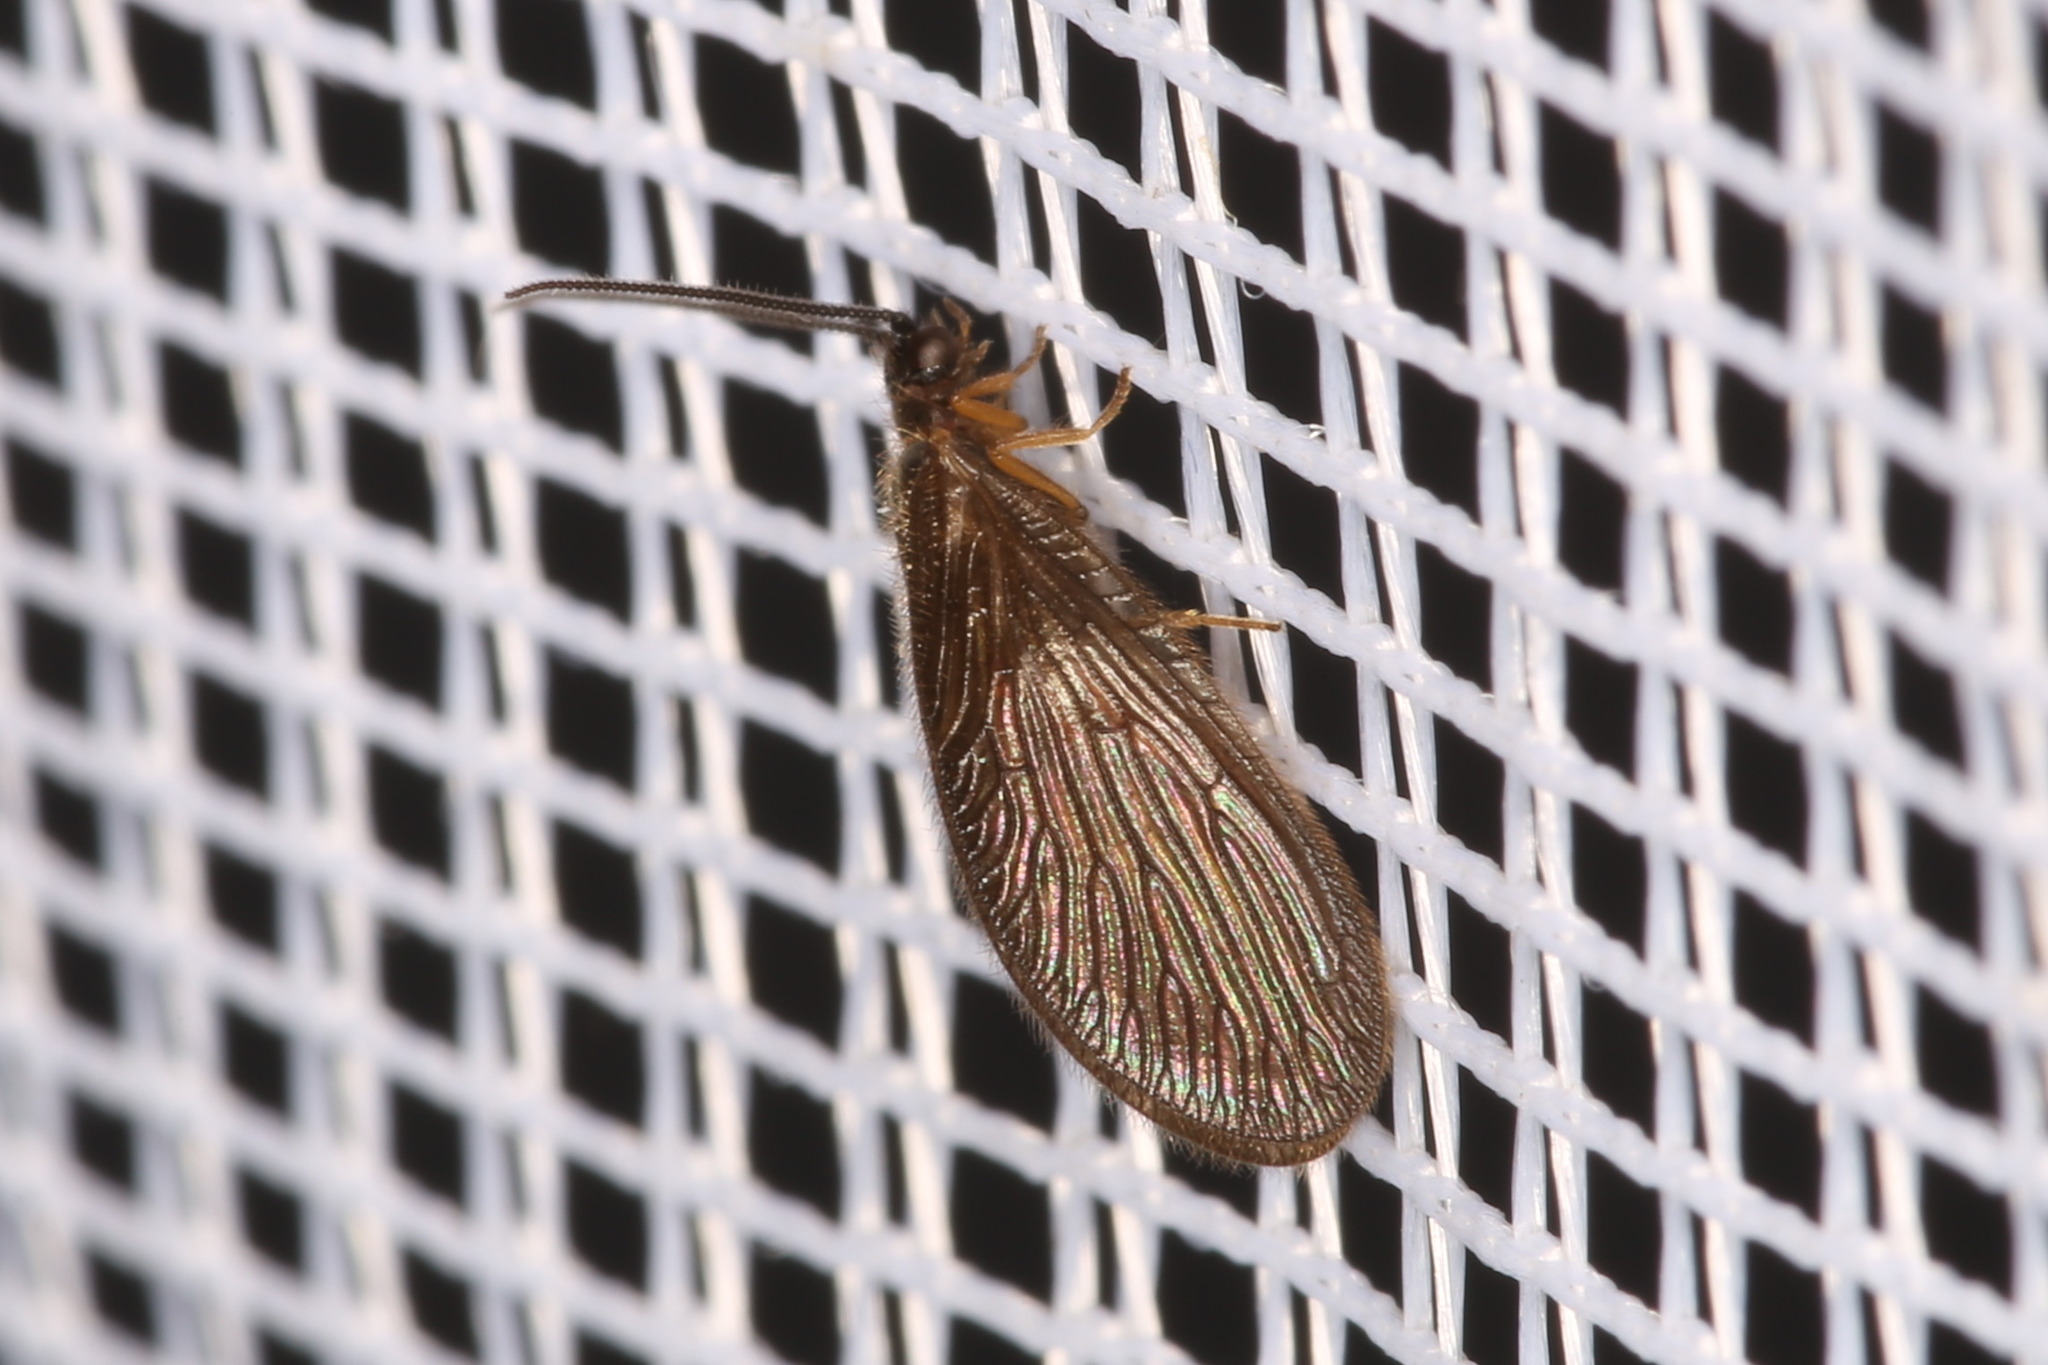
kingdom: Animalia
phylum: Arthropoda
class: Insecta
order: Neuroptera
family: Sisyridae
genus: Sisyra
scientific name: Sisyra nigra
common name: Black spongillafly
